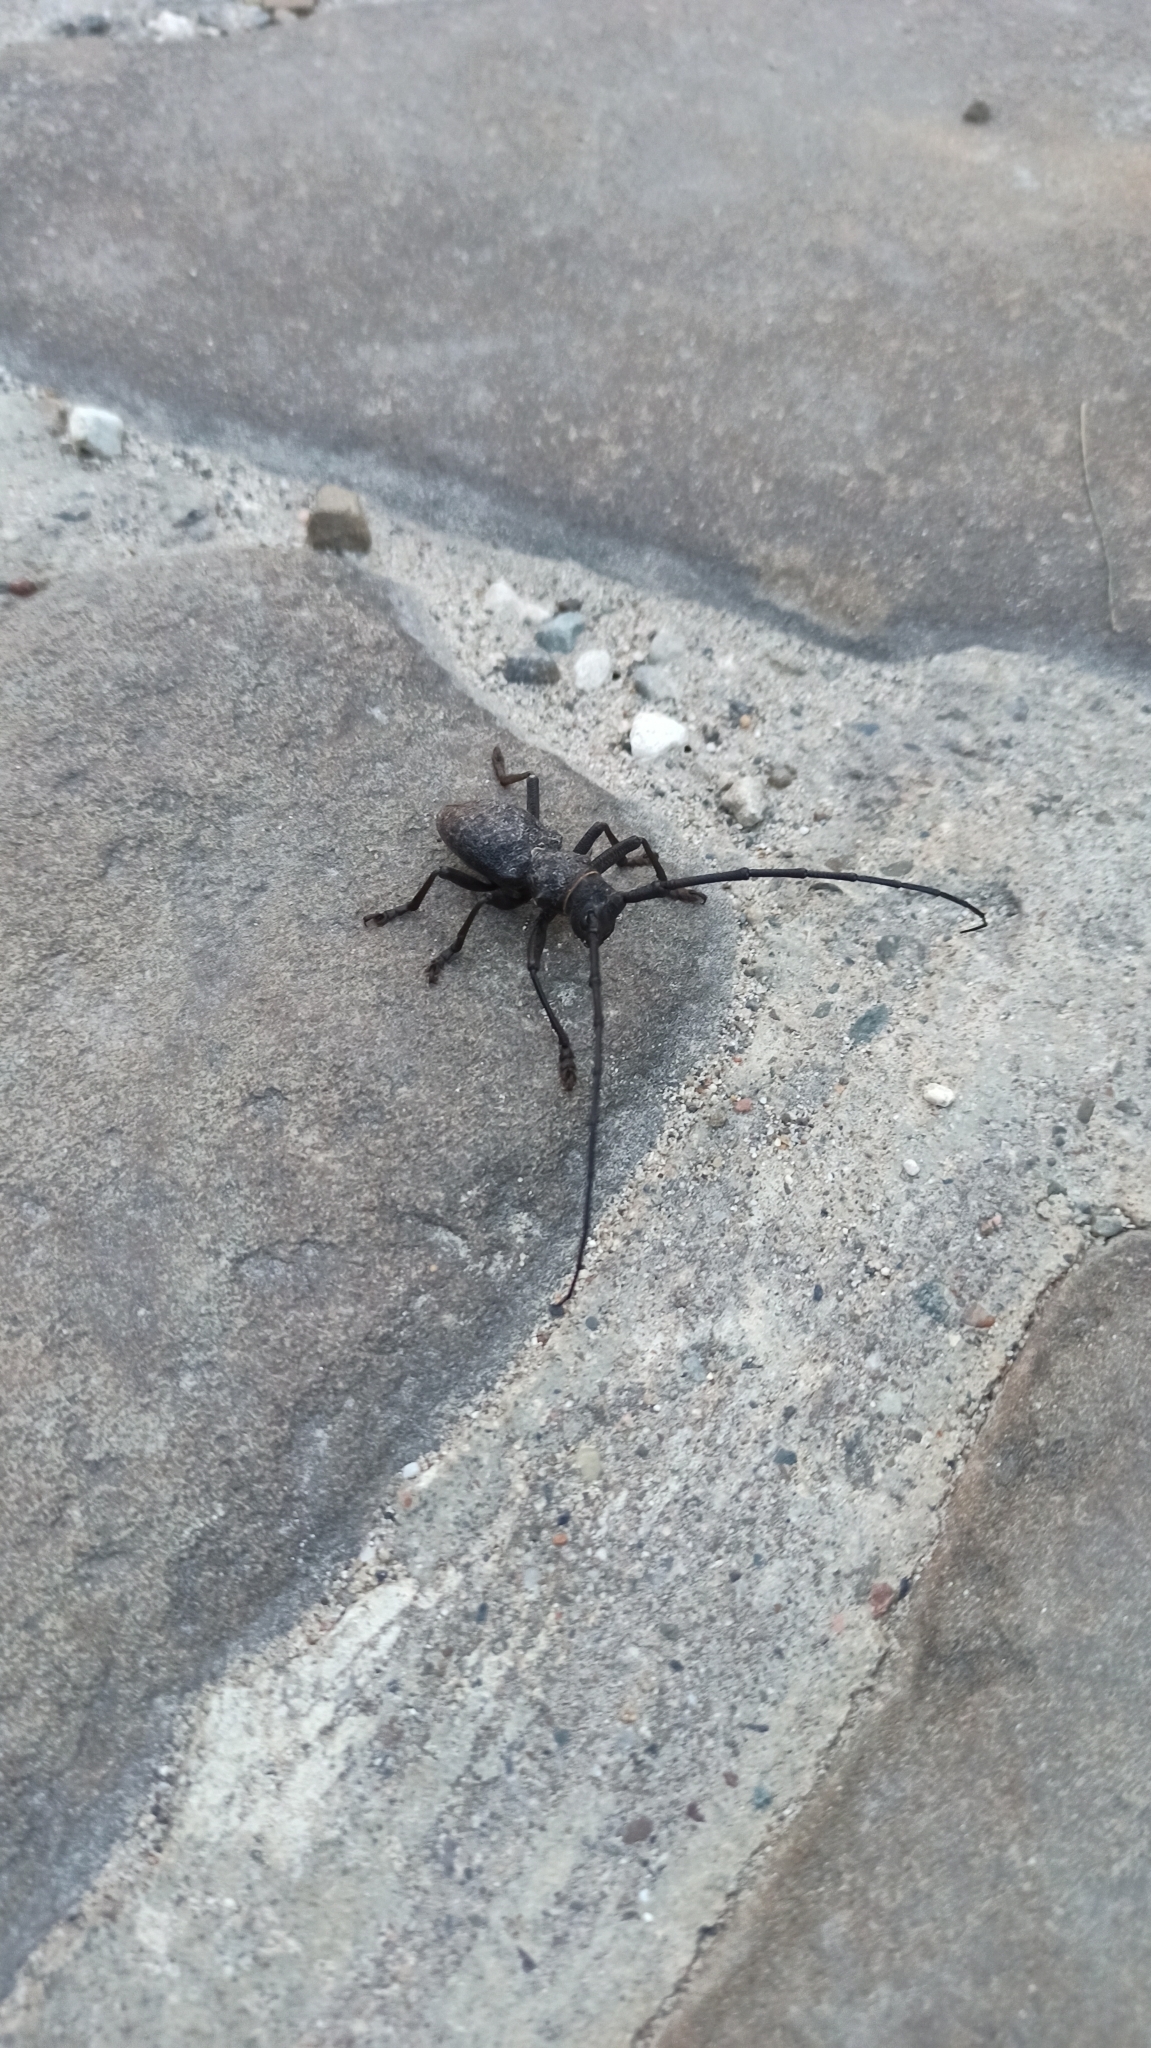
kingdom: Animalia
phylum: Arthropoda
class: Insecta
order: Coleoptera
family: Cerambycidae
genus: Morimus
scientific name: Morimus verecundus
